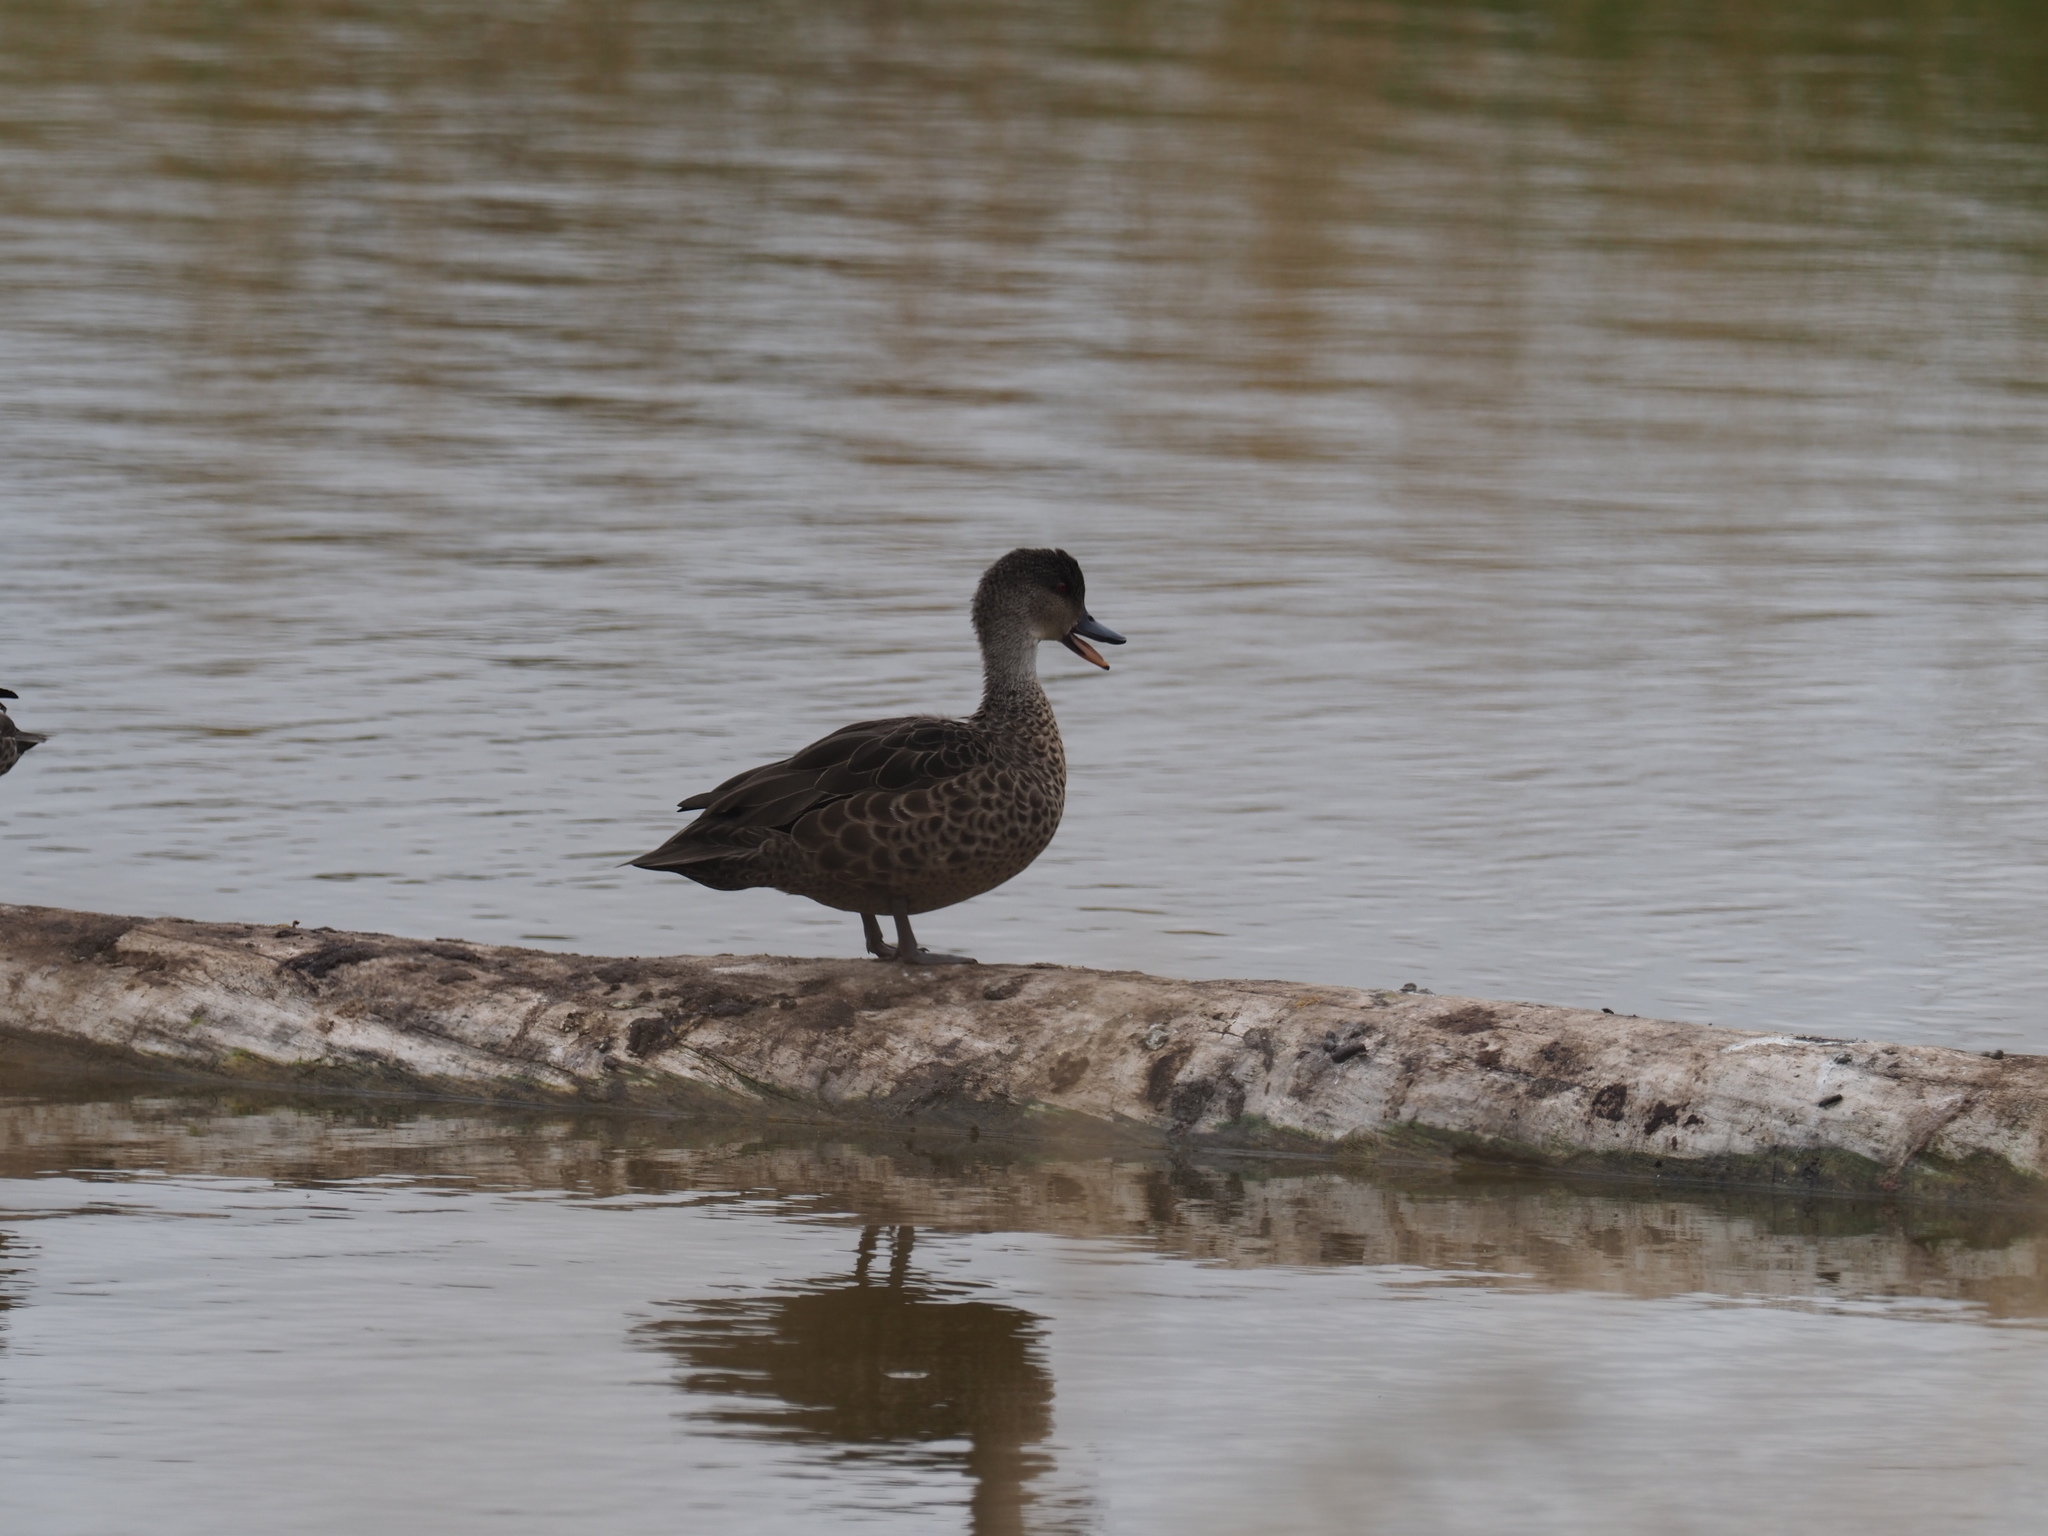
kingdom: Animalia
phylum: Chordata
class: Aves
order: Anseriformes
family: Anatidae
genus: Anas
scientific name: Anas gracilis
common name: Grey teal
